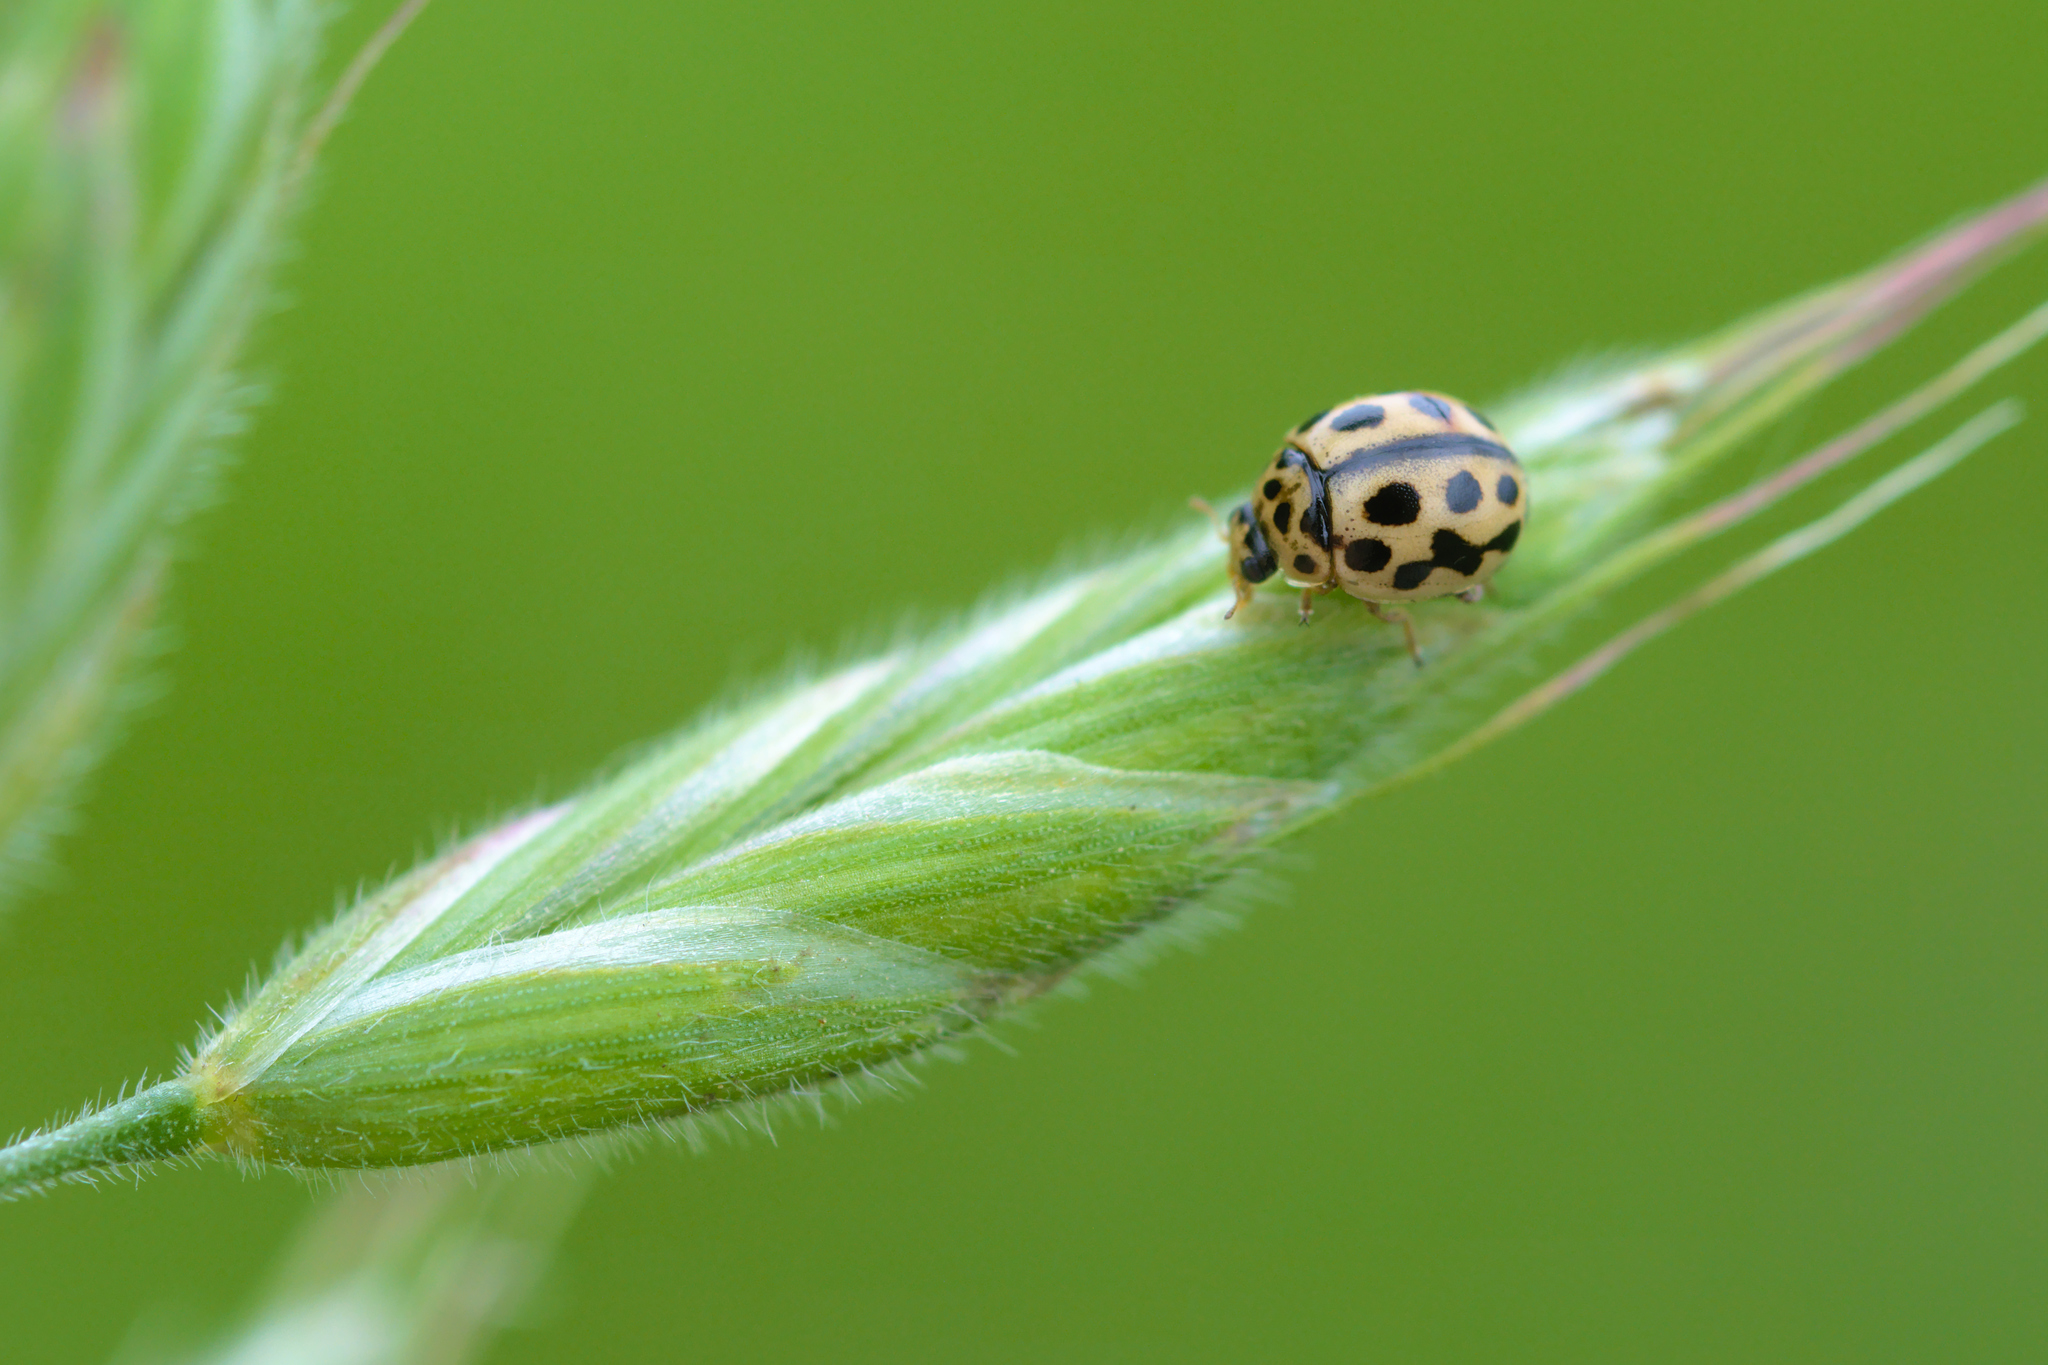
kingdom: Animalia
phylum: Arthropoda
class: Insecta
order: Coleoptera
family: Coccinellidae
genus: Tytthaspis
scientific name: Tytthaspis sedecimpunctata
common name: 16-spot ladybird
